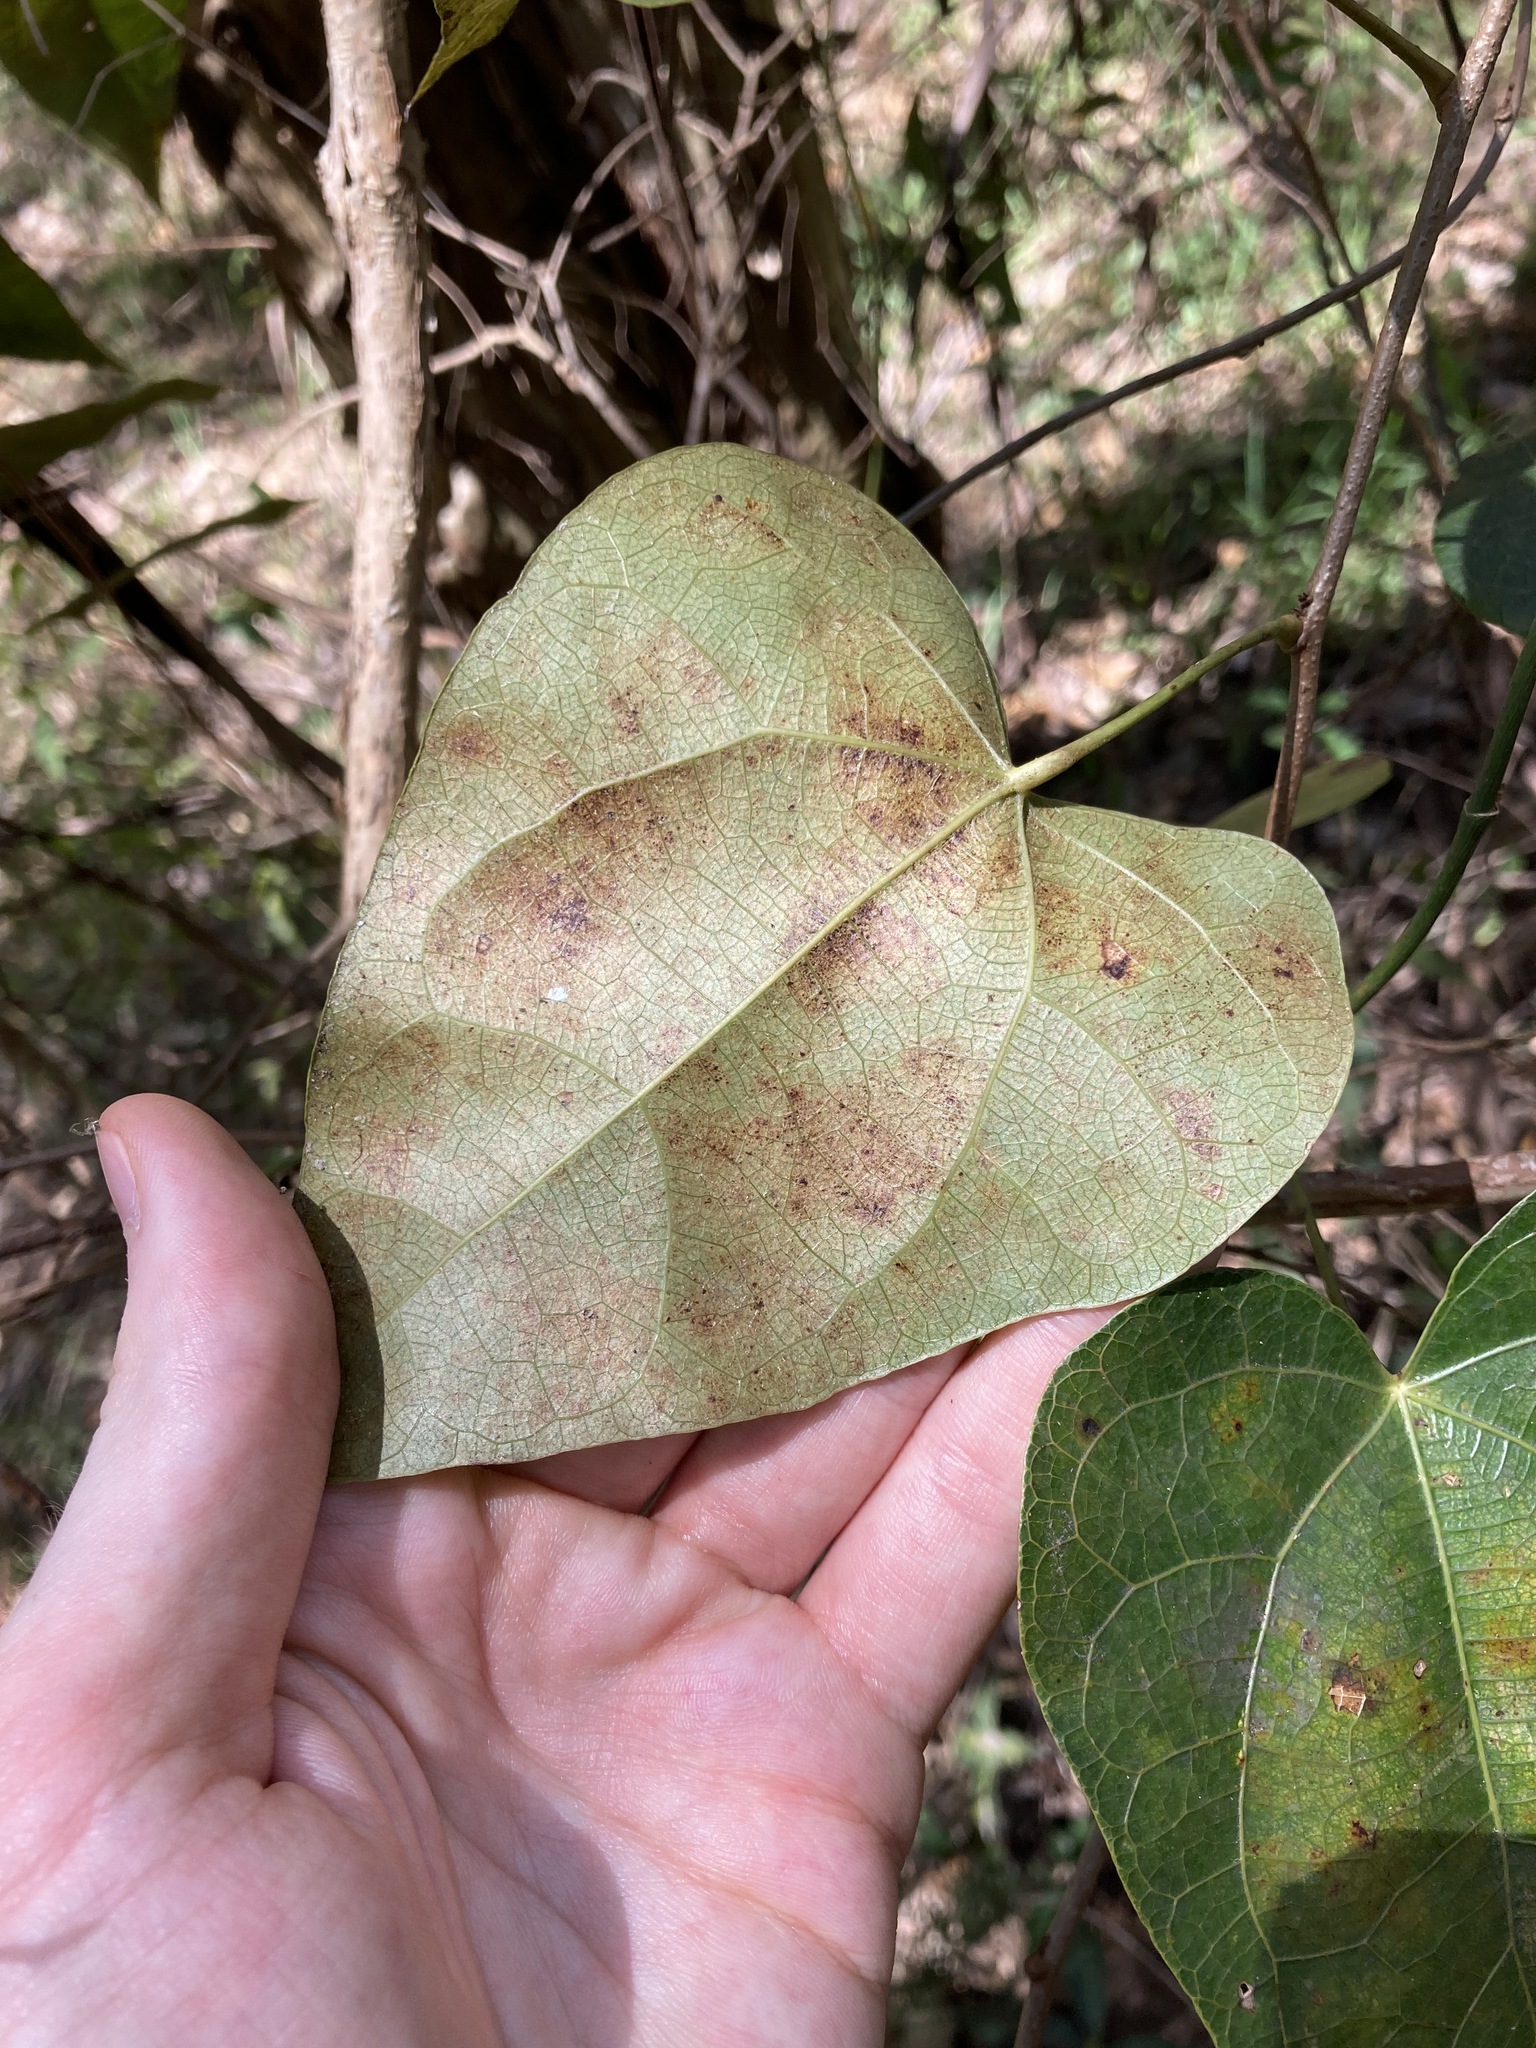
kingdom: Plantae
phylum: Tracheophyta
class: Magnoliopsida
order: Ranunculales
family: Menispermaceae
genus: Sarcopetalum
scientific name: Sarcopetalum harveyanum
